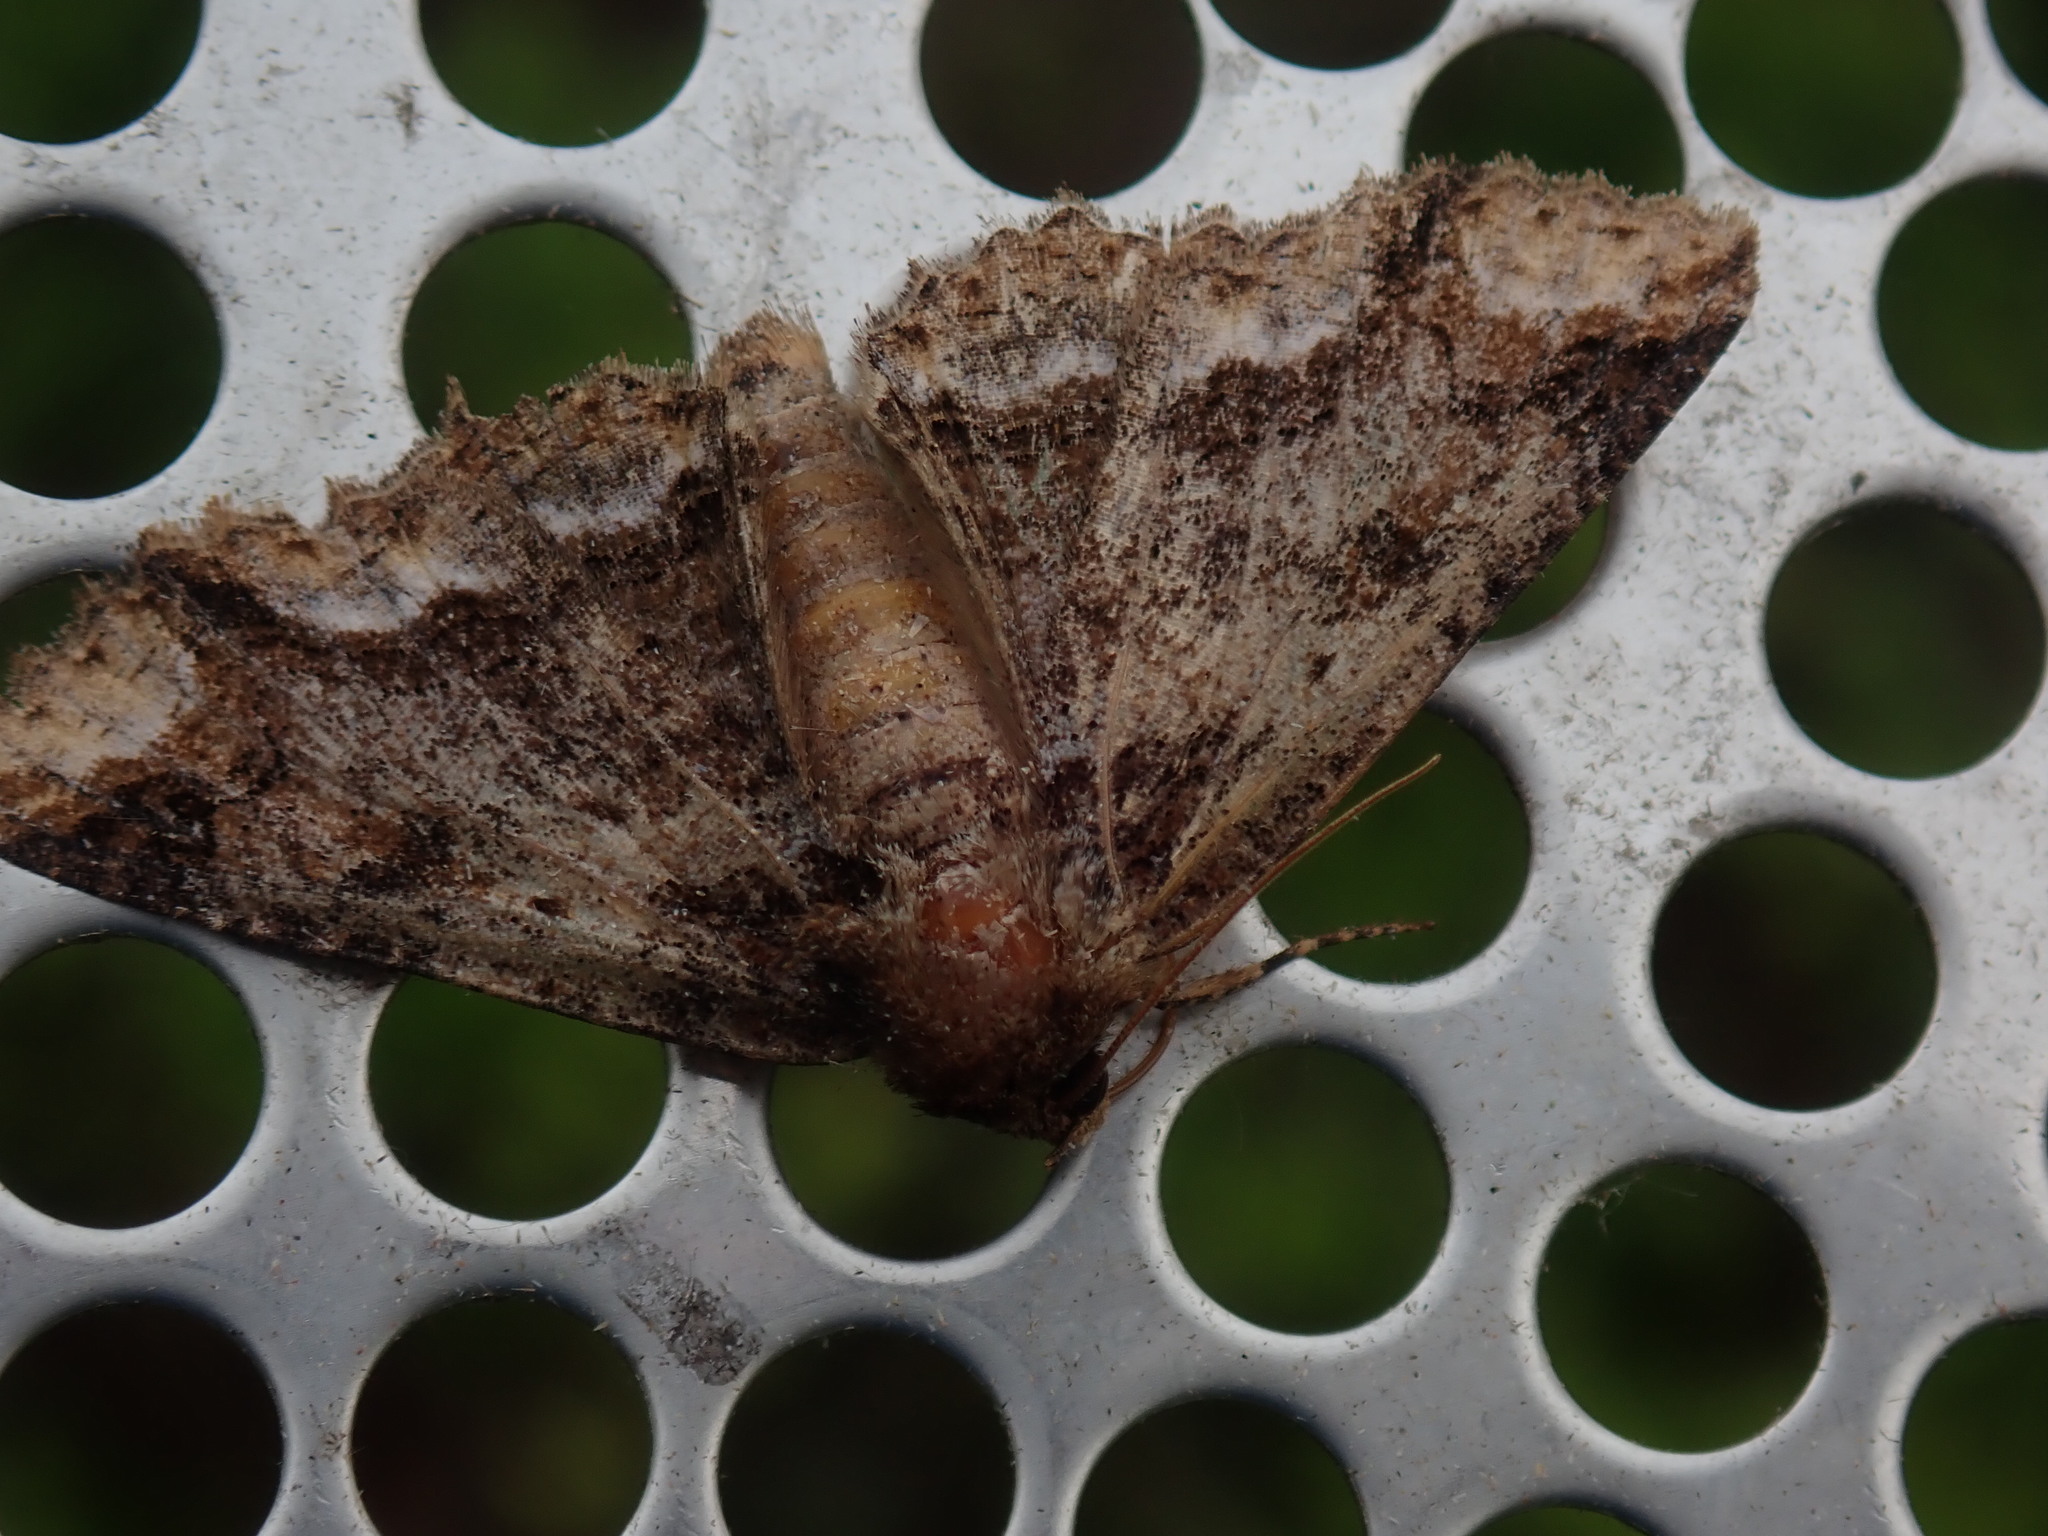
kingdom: Animalia
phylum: Arthropoda
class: Insecta
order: Lepidoptera
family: Erebidae
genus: Zale
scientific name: Zale minerea
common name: Colorful zale moth
